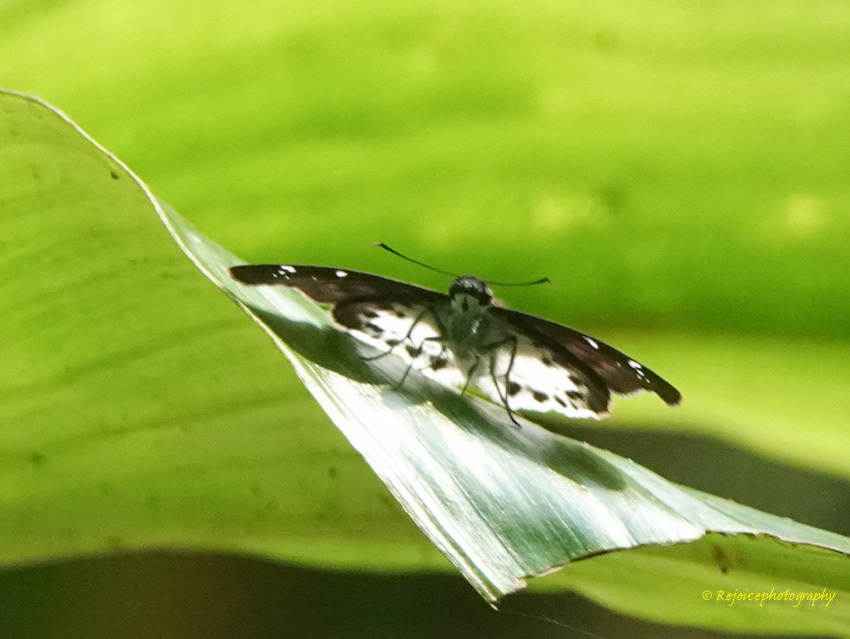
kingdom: Animalia
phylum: Arthropoda
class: Insecta
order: Lepidoptera
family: Hesperiidae
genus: Tagiades
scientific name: Tagiades litigiosa
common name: Water snow flat
